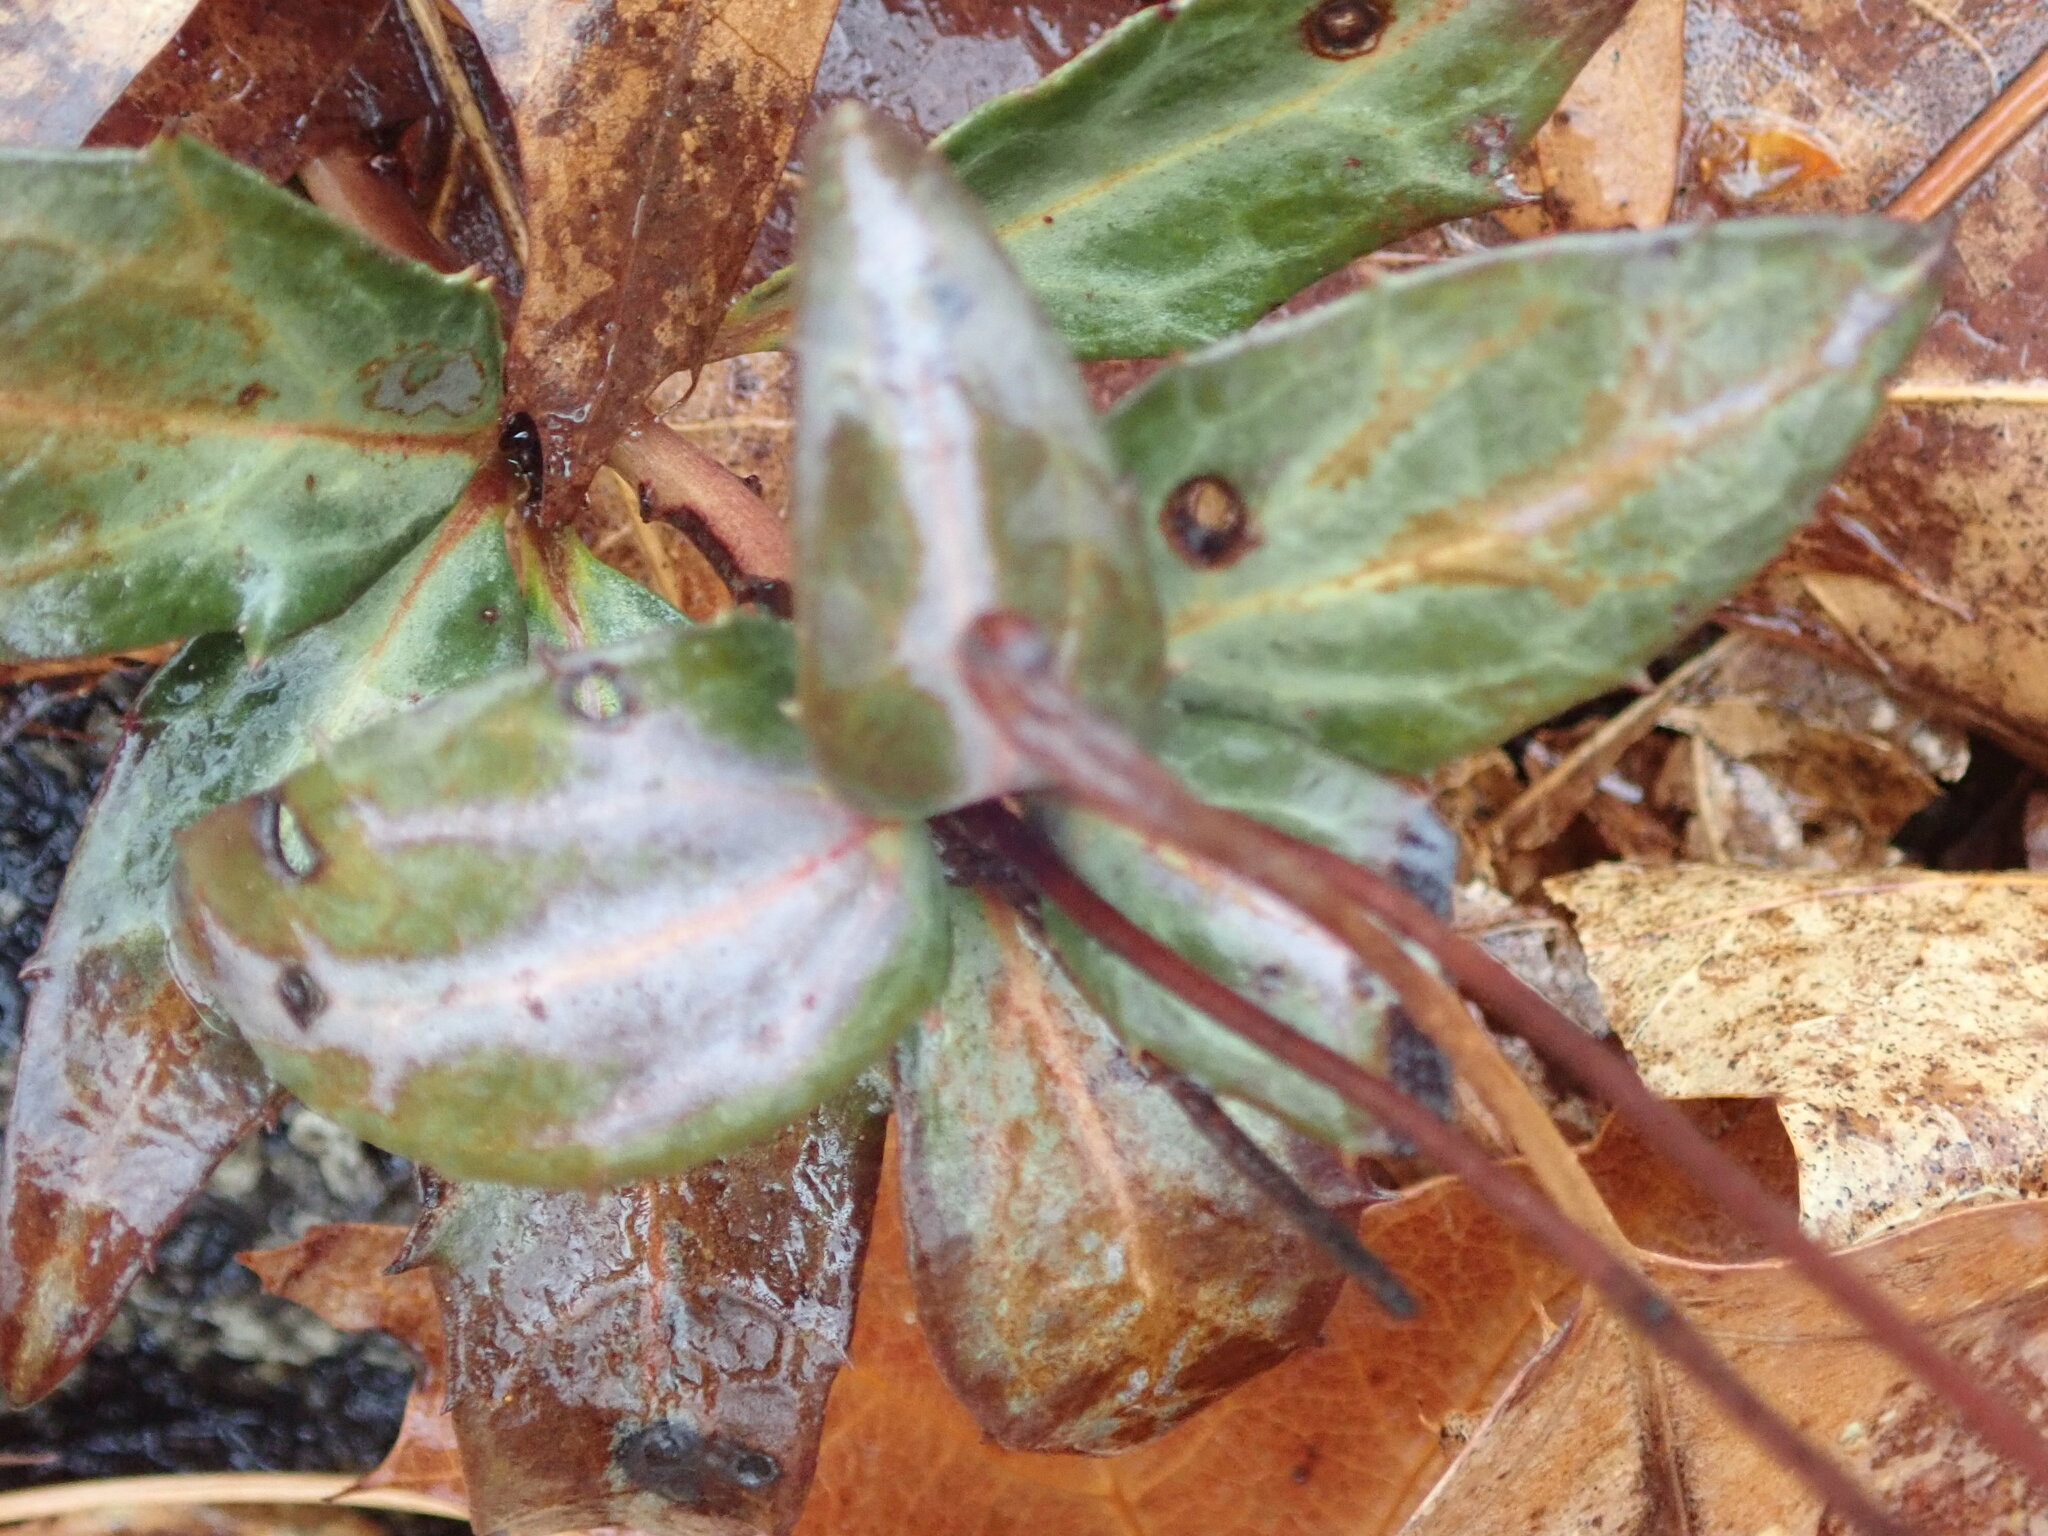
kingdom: Plantae
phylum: Tracheophyta
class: Magnoliopsida
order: Ericales
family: Ericaceae
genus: Chimaphila
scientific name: Chimaphila maculata
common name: Spotted pipsissewa
